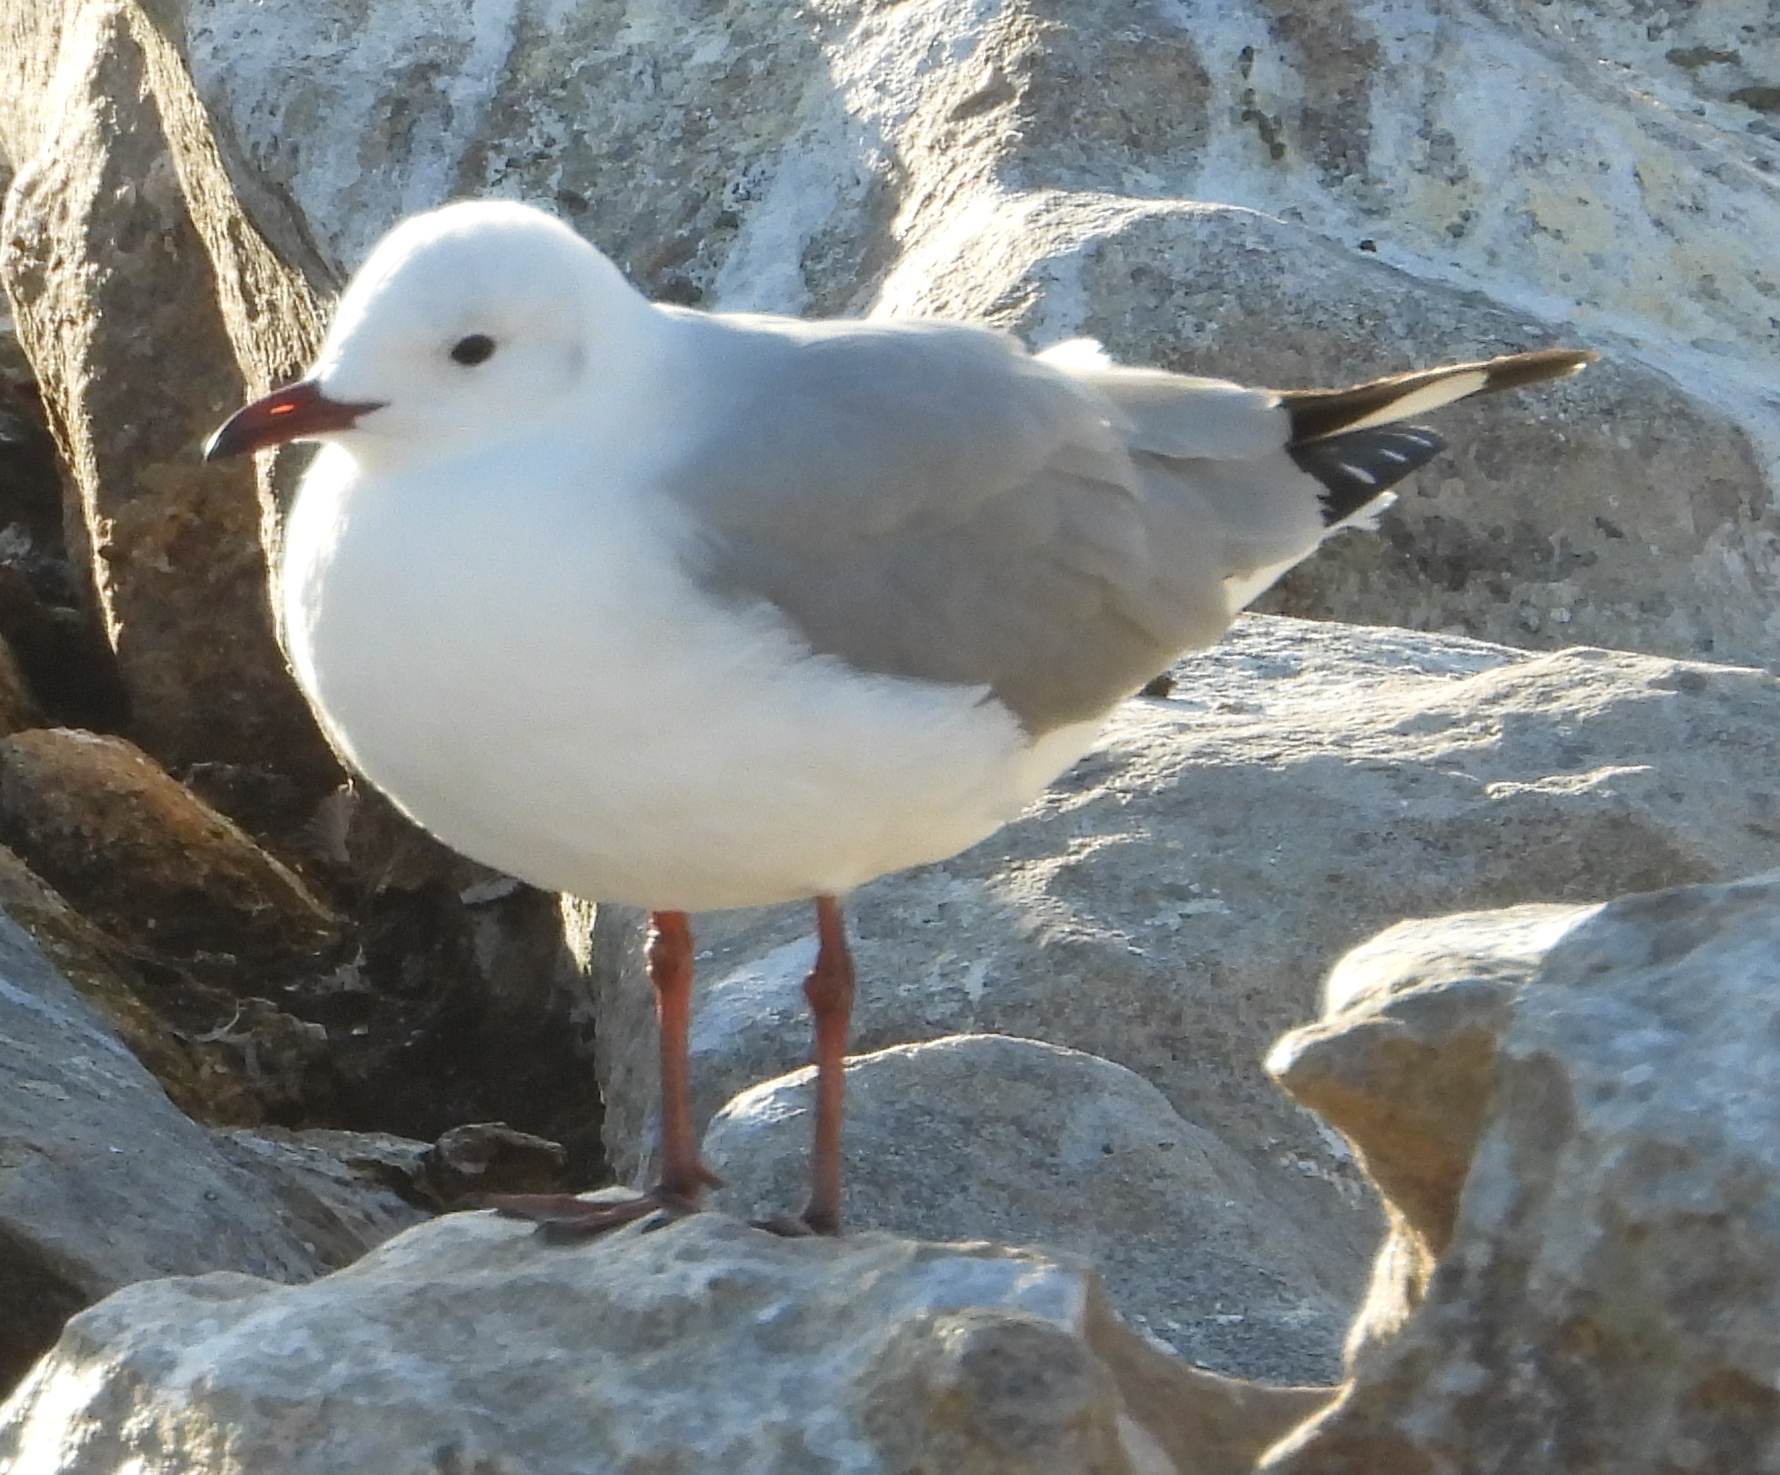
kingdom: Animalia
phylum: Chordata
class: Aves
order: Charadriiformes
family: Laridae
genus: Chroicocephalus
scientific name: Chroicocephalus hartlaubii
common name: Hartlaub's gull
